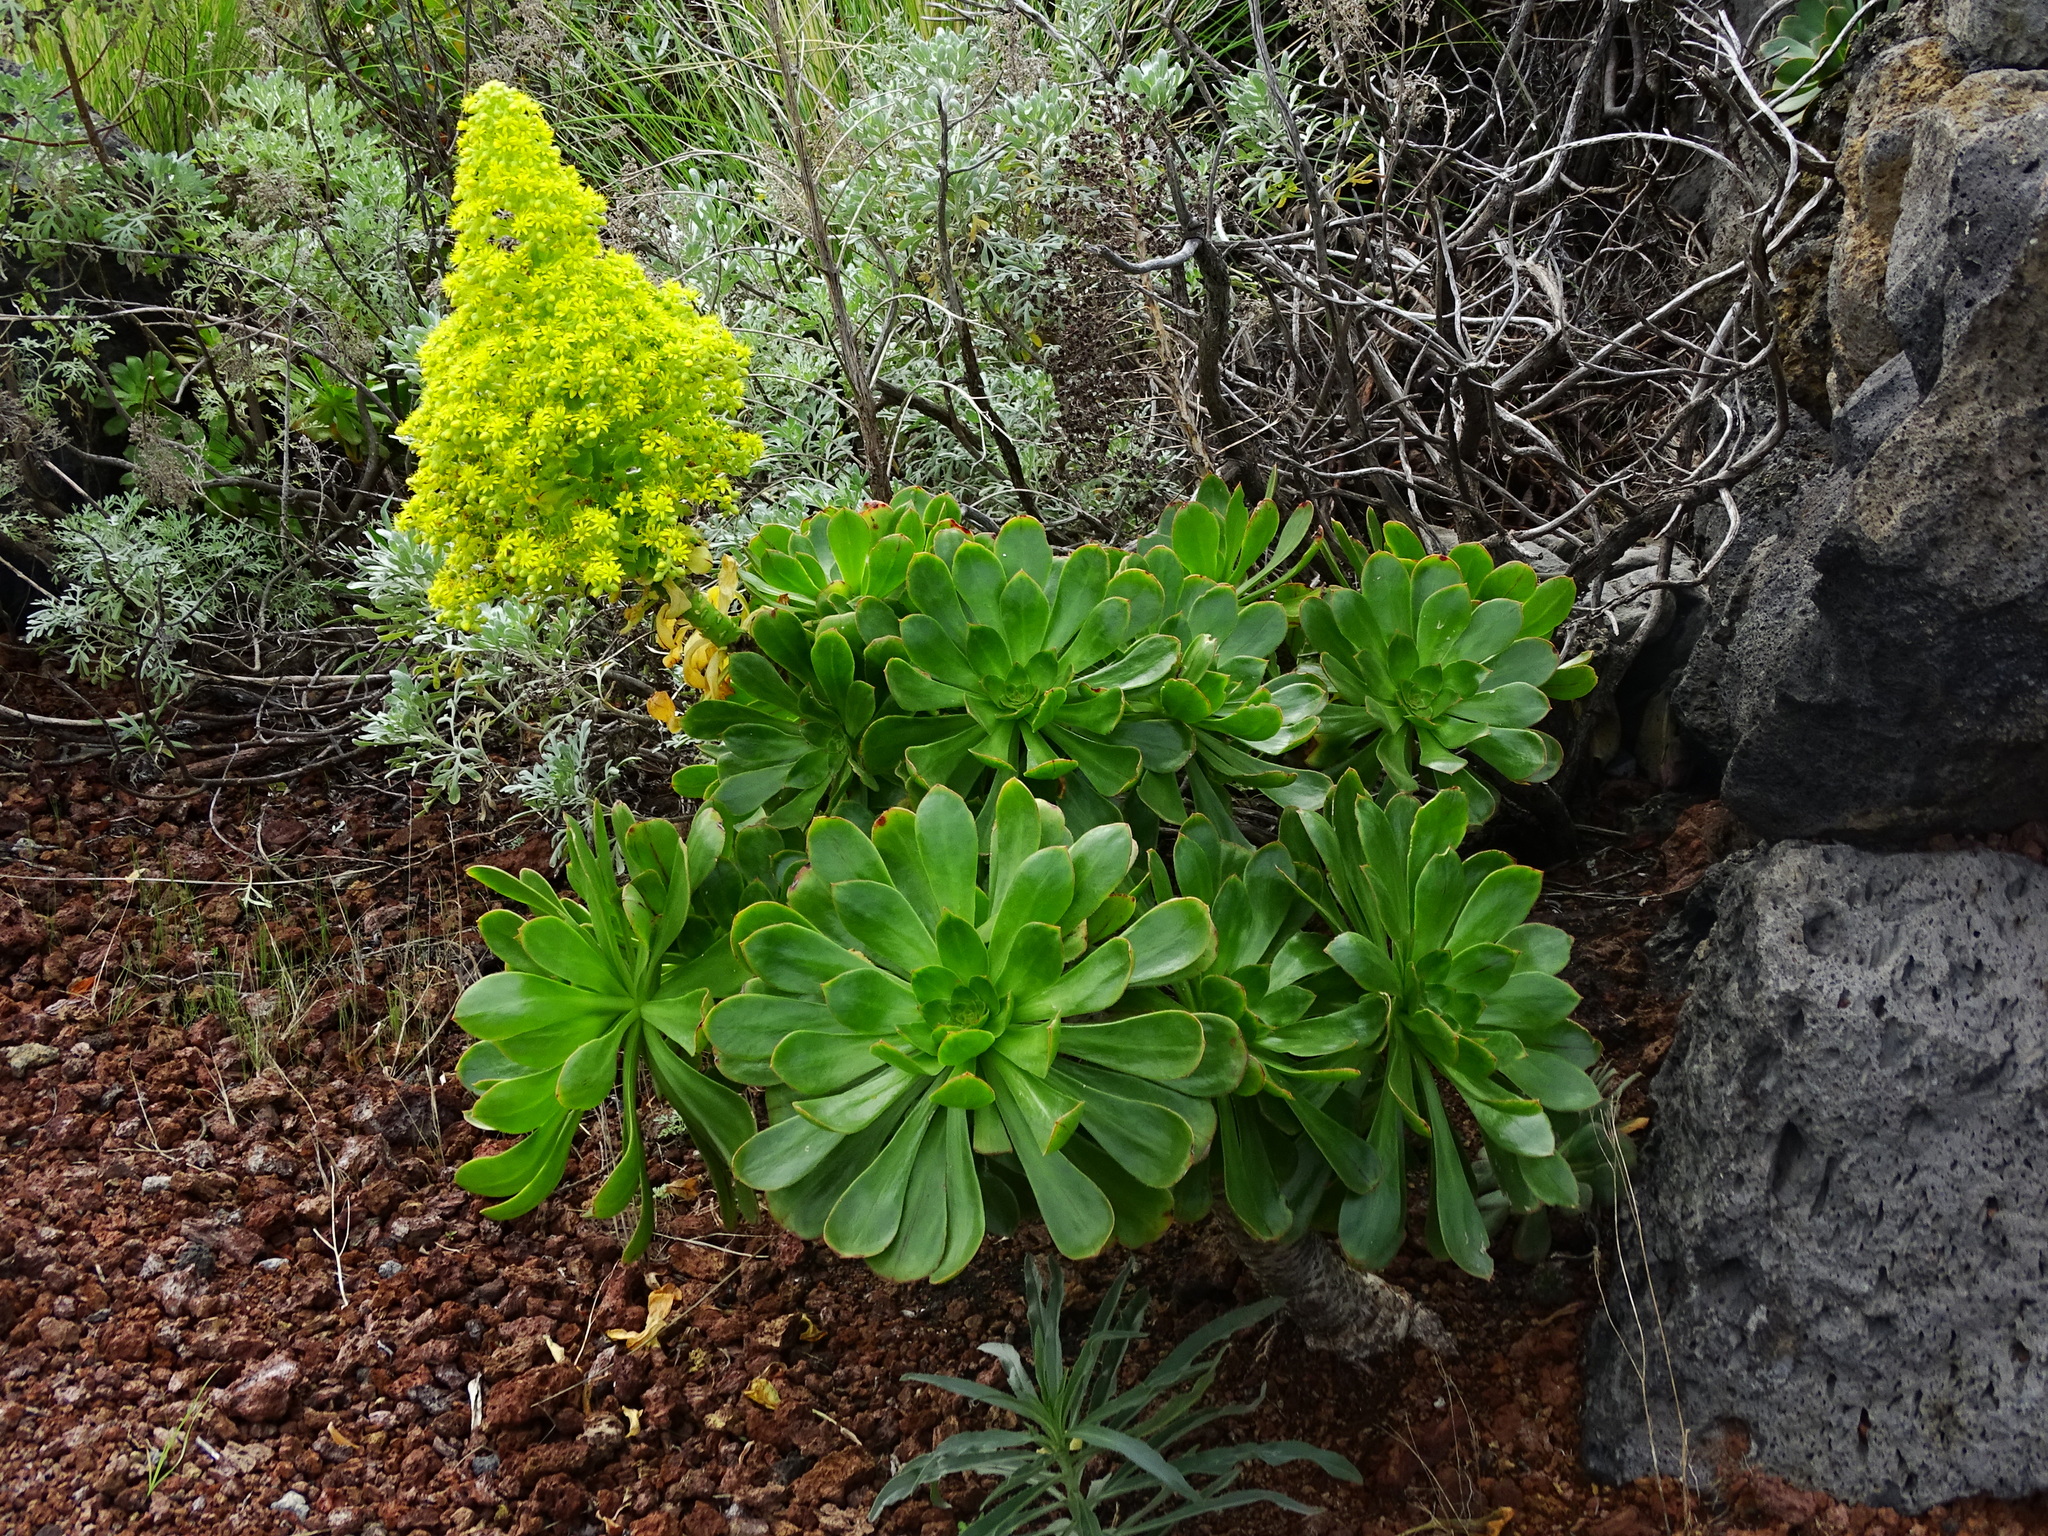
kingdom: Plantae
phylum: Tracheophyta
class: Magnoliopsida
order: Saxifragales
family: Crassulaceae
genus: Aeonium
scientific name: Aeonium arboreum
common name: Tree aeonium
